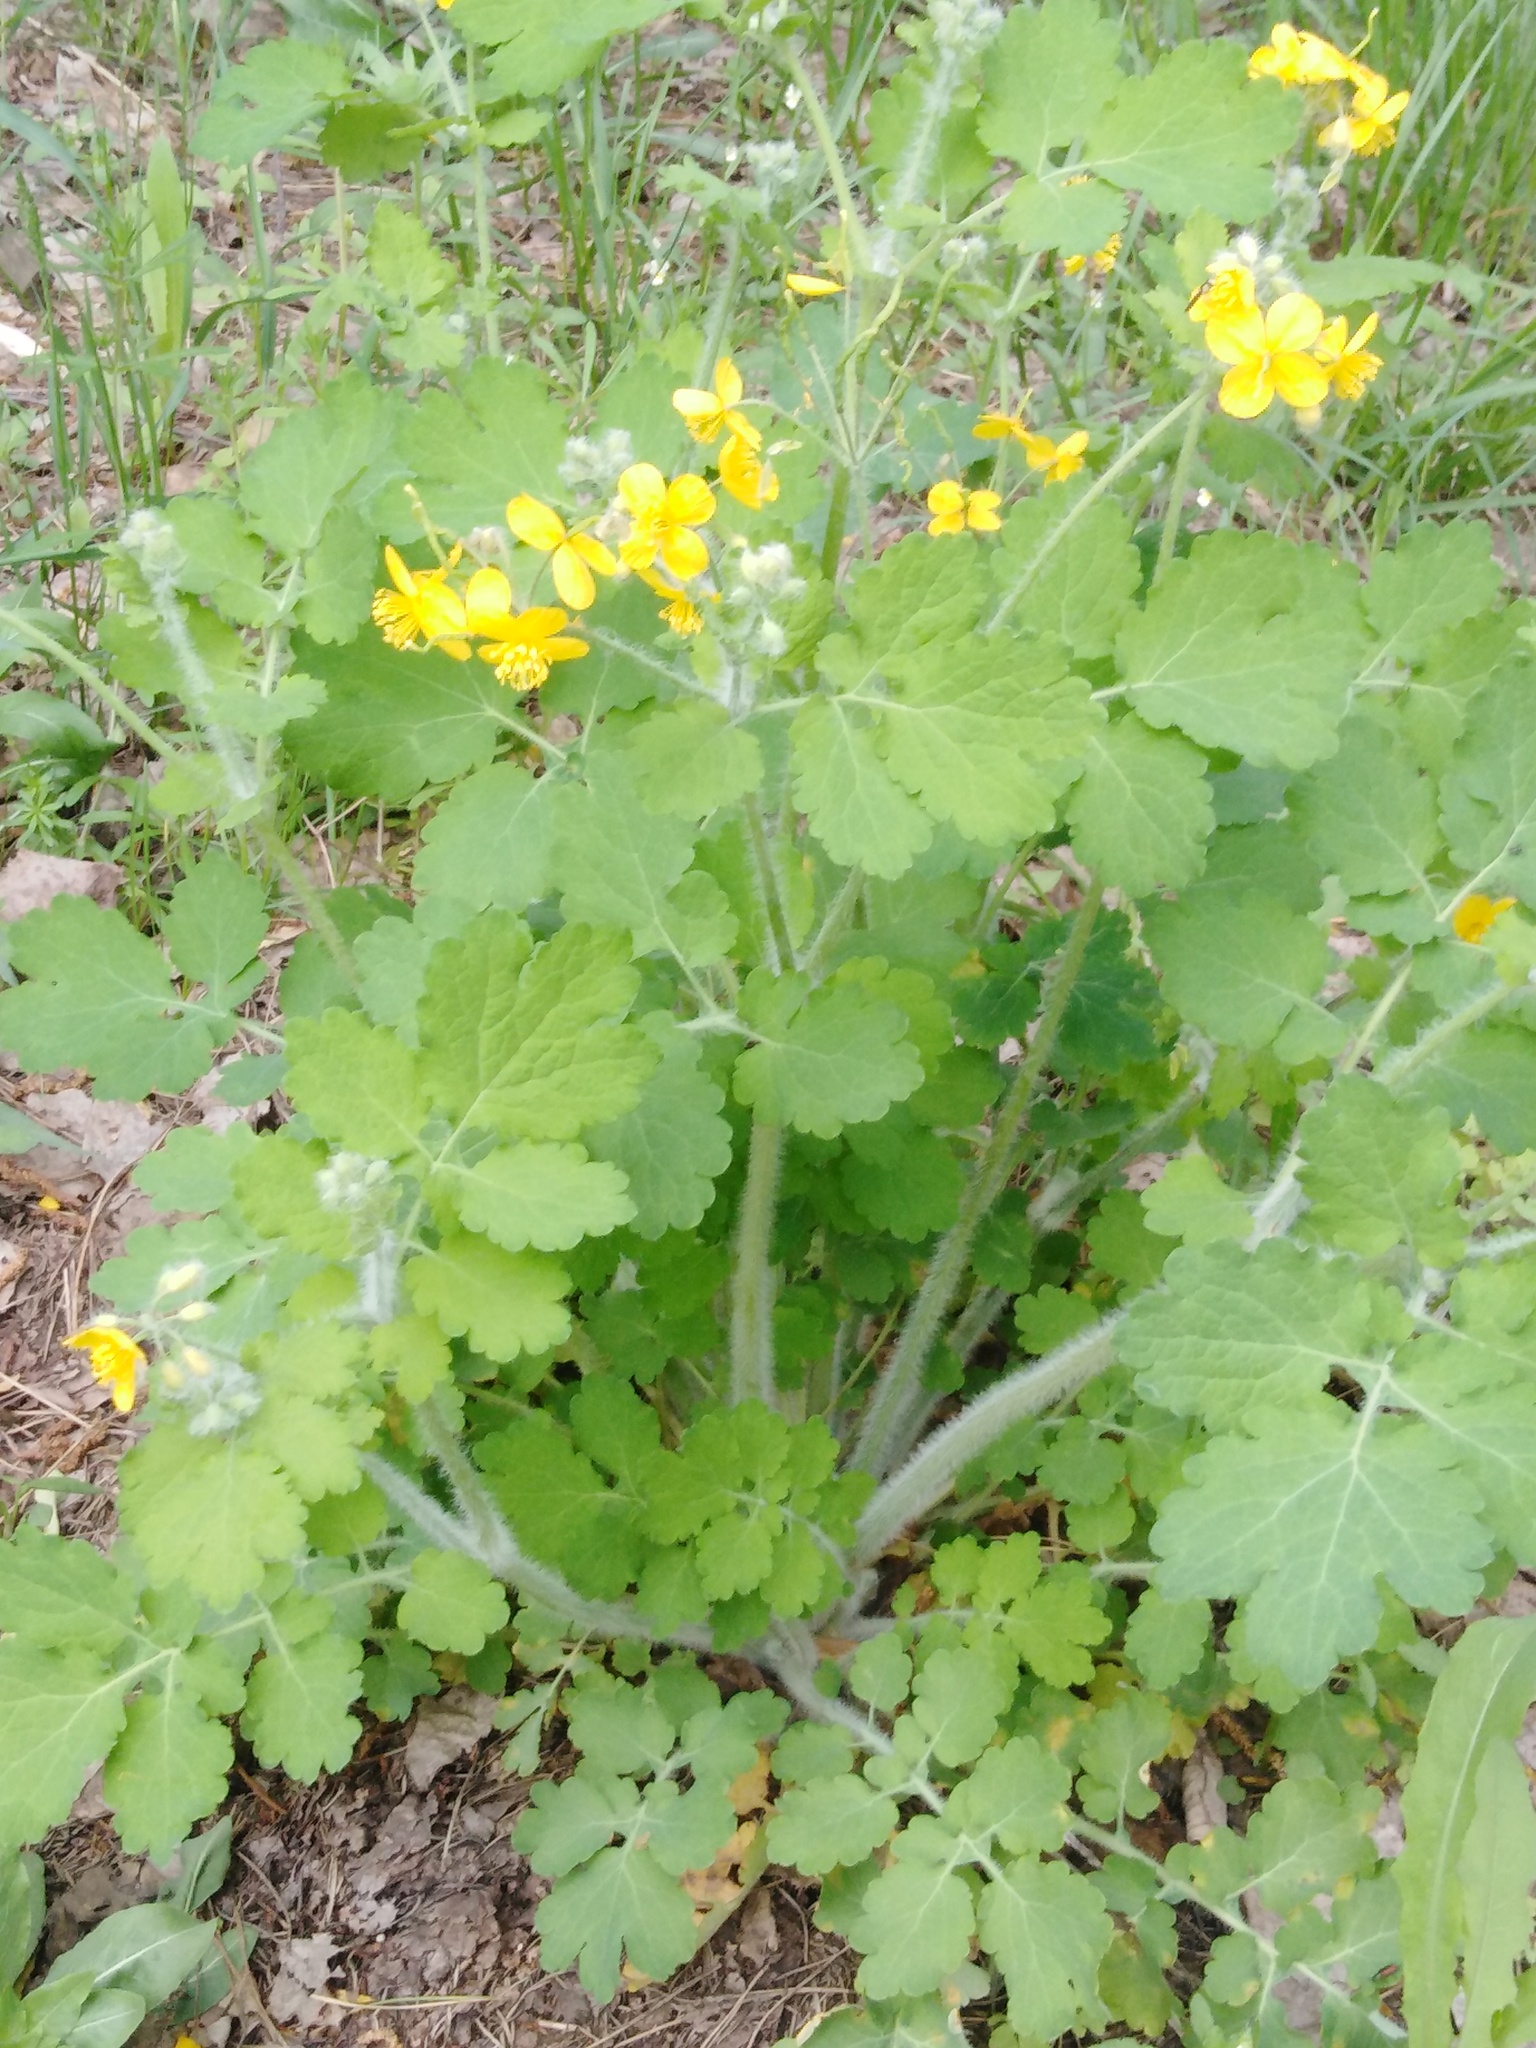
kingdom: Plantae
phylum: Tracheophyta
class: Magnoliopsida
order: Ranunculales
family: Papaveraceae
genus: Chelidonium
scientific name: Chelidonium majus
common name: Greater celandine
